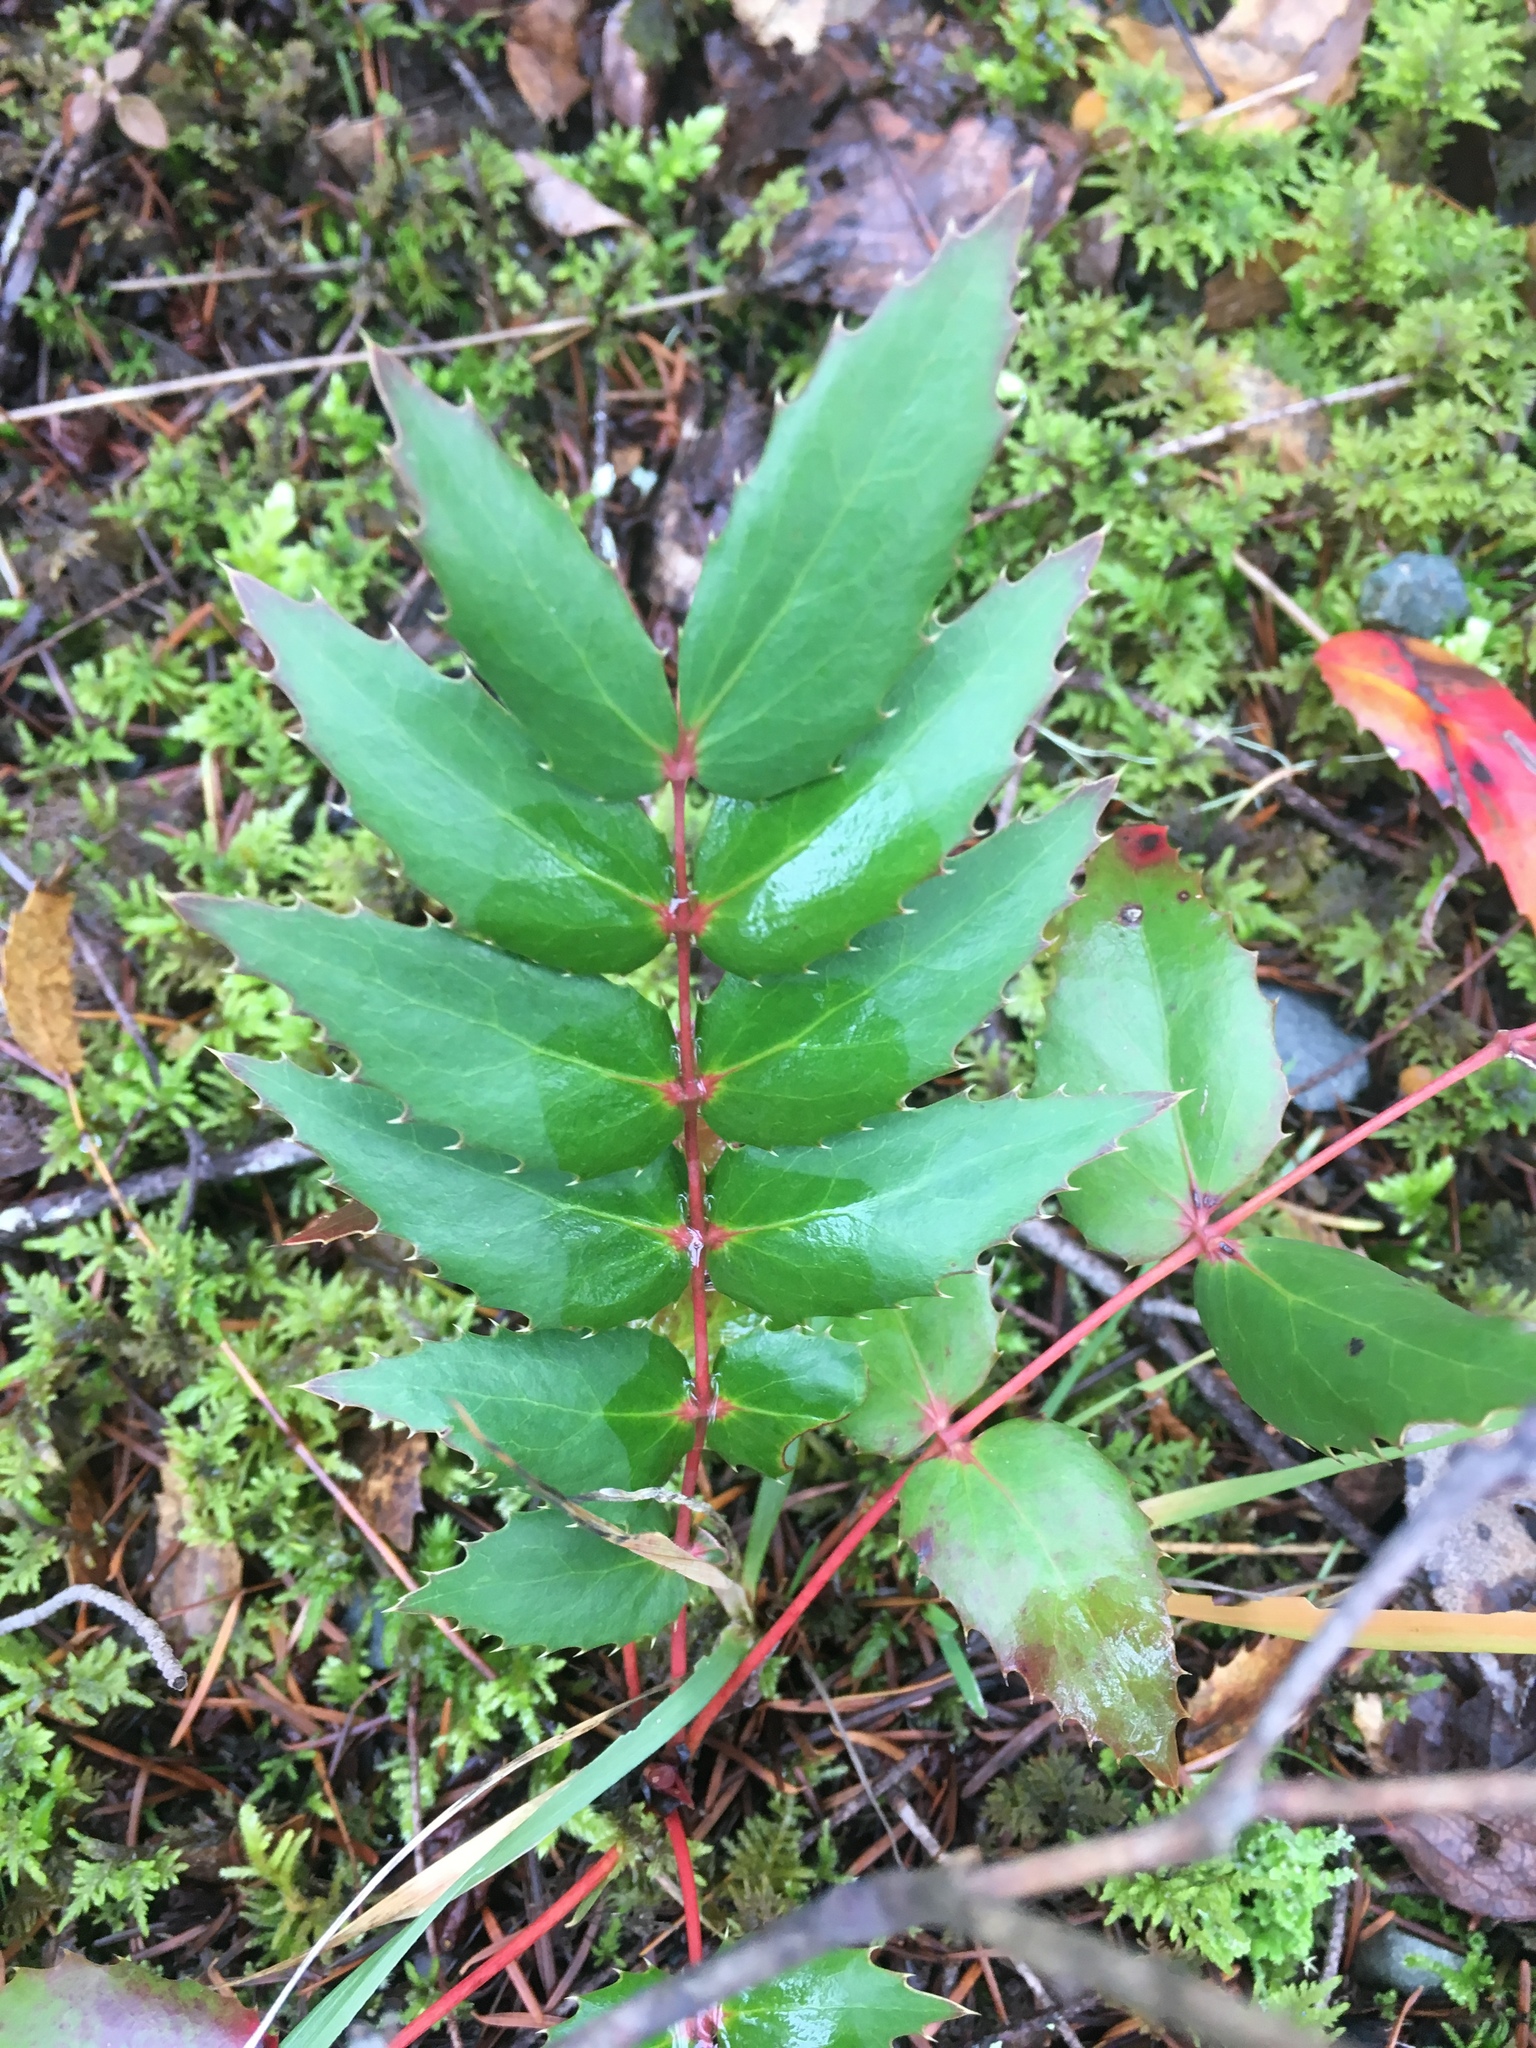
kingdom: Plantae
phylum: Tracheophyta
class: Magnoliopsida
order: Ranunculales
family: Berberidaceae
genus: Mahonia
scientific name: Mahonia nervosa
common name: Cascade oregon-grape
